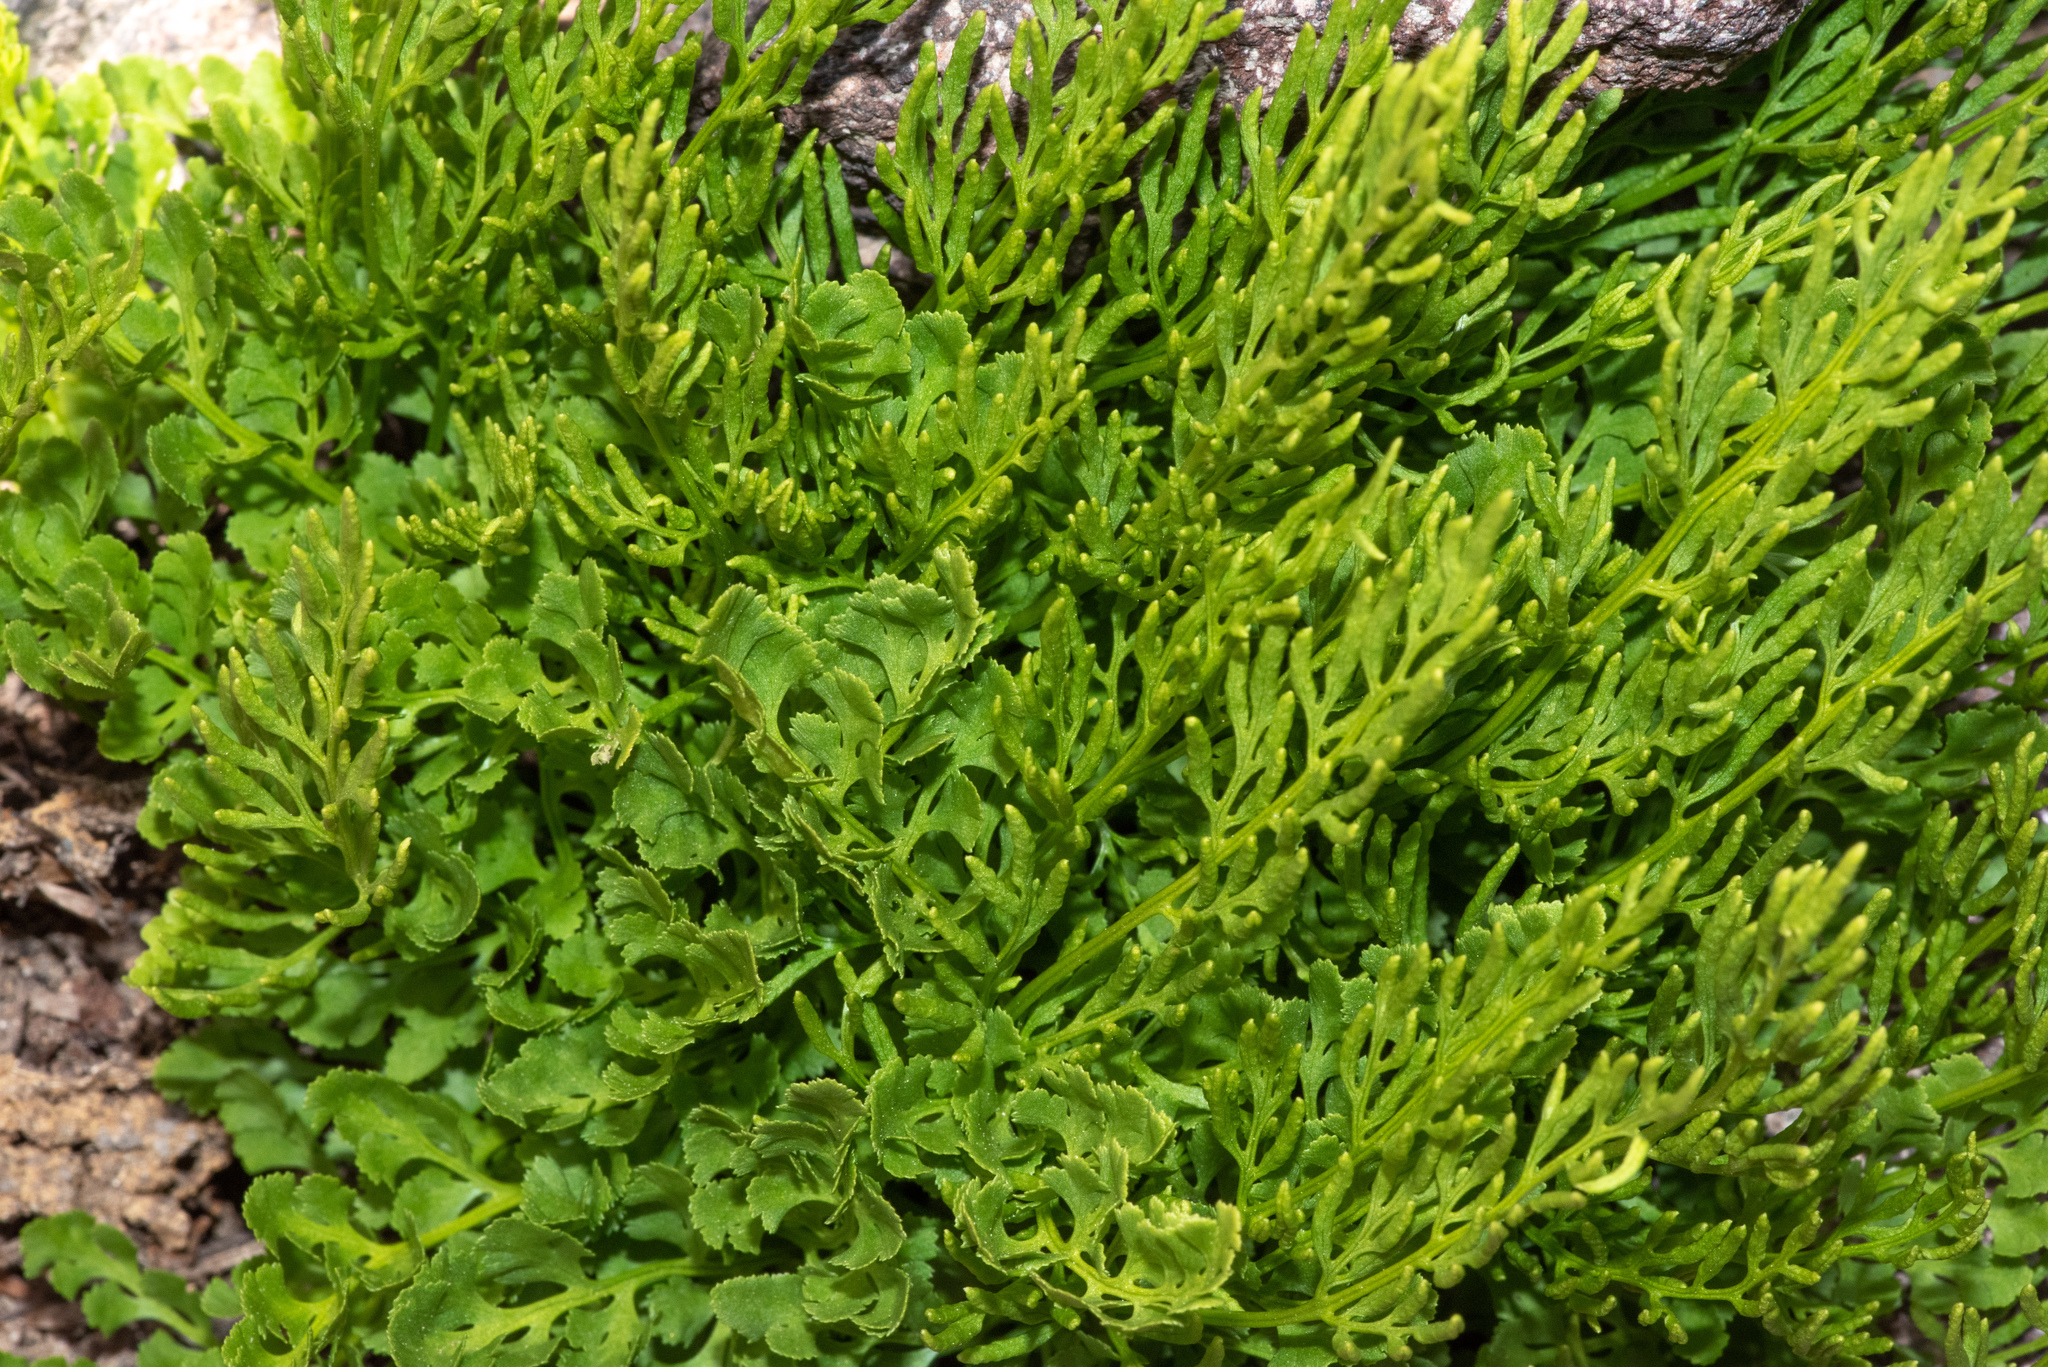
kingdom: Plantae
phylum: Tracheophyta
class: Polypodiopsida
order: Polypodiales
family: Pteridaceae
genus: Cryptogramma
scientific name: Cryptogramma cascadensis
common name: Cascade parsley fern
